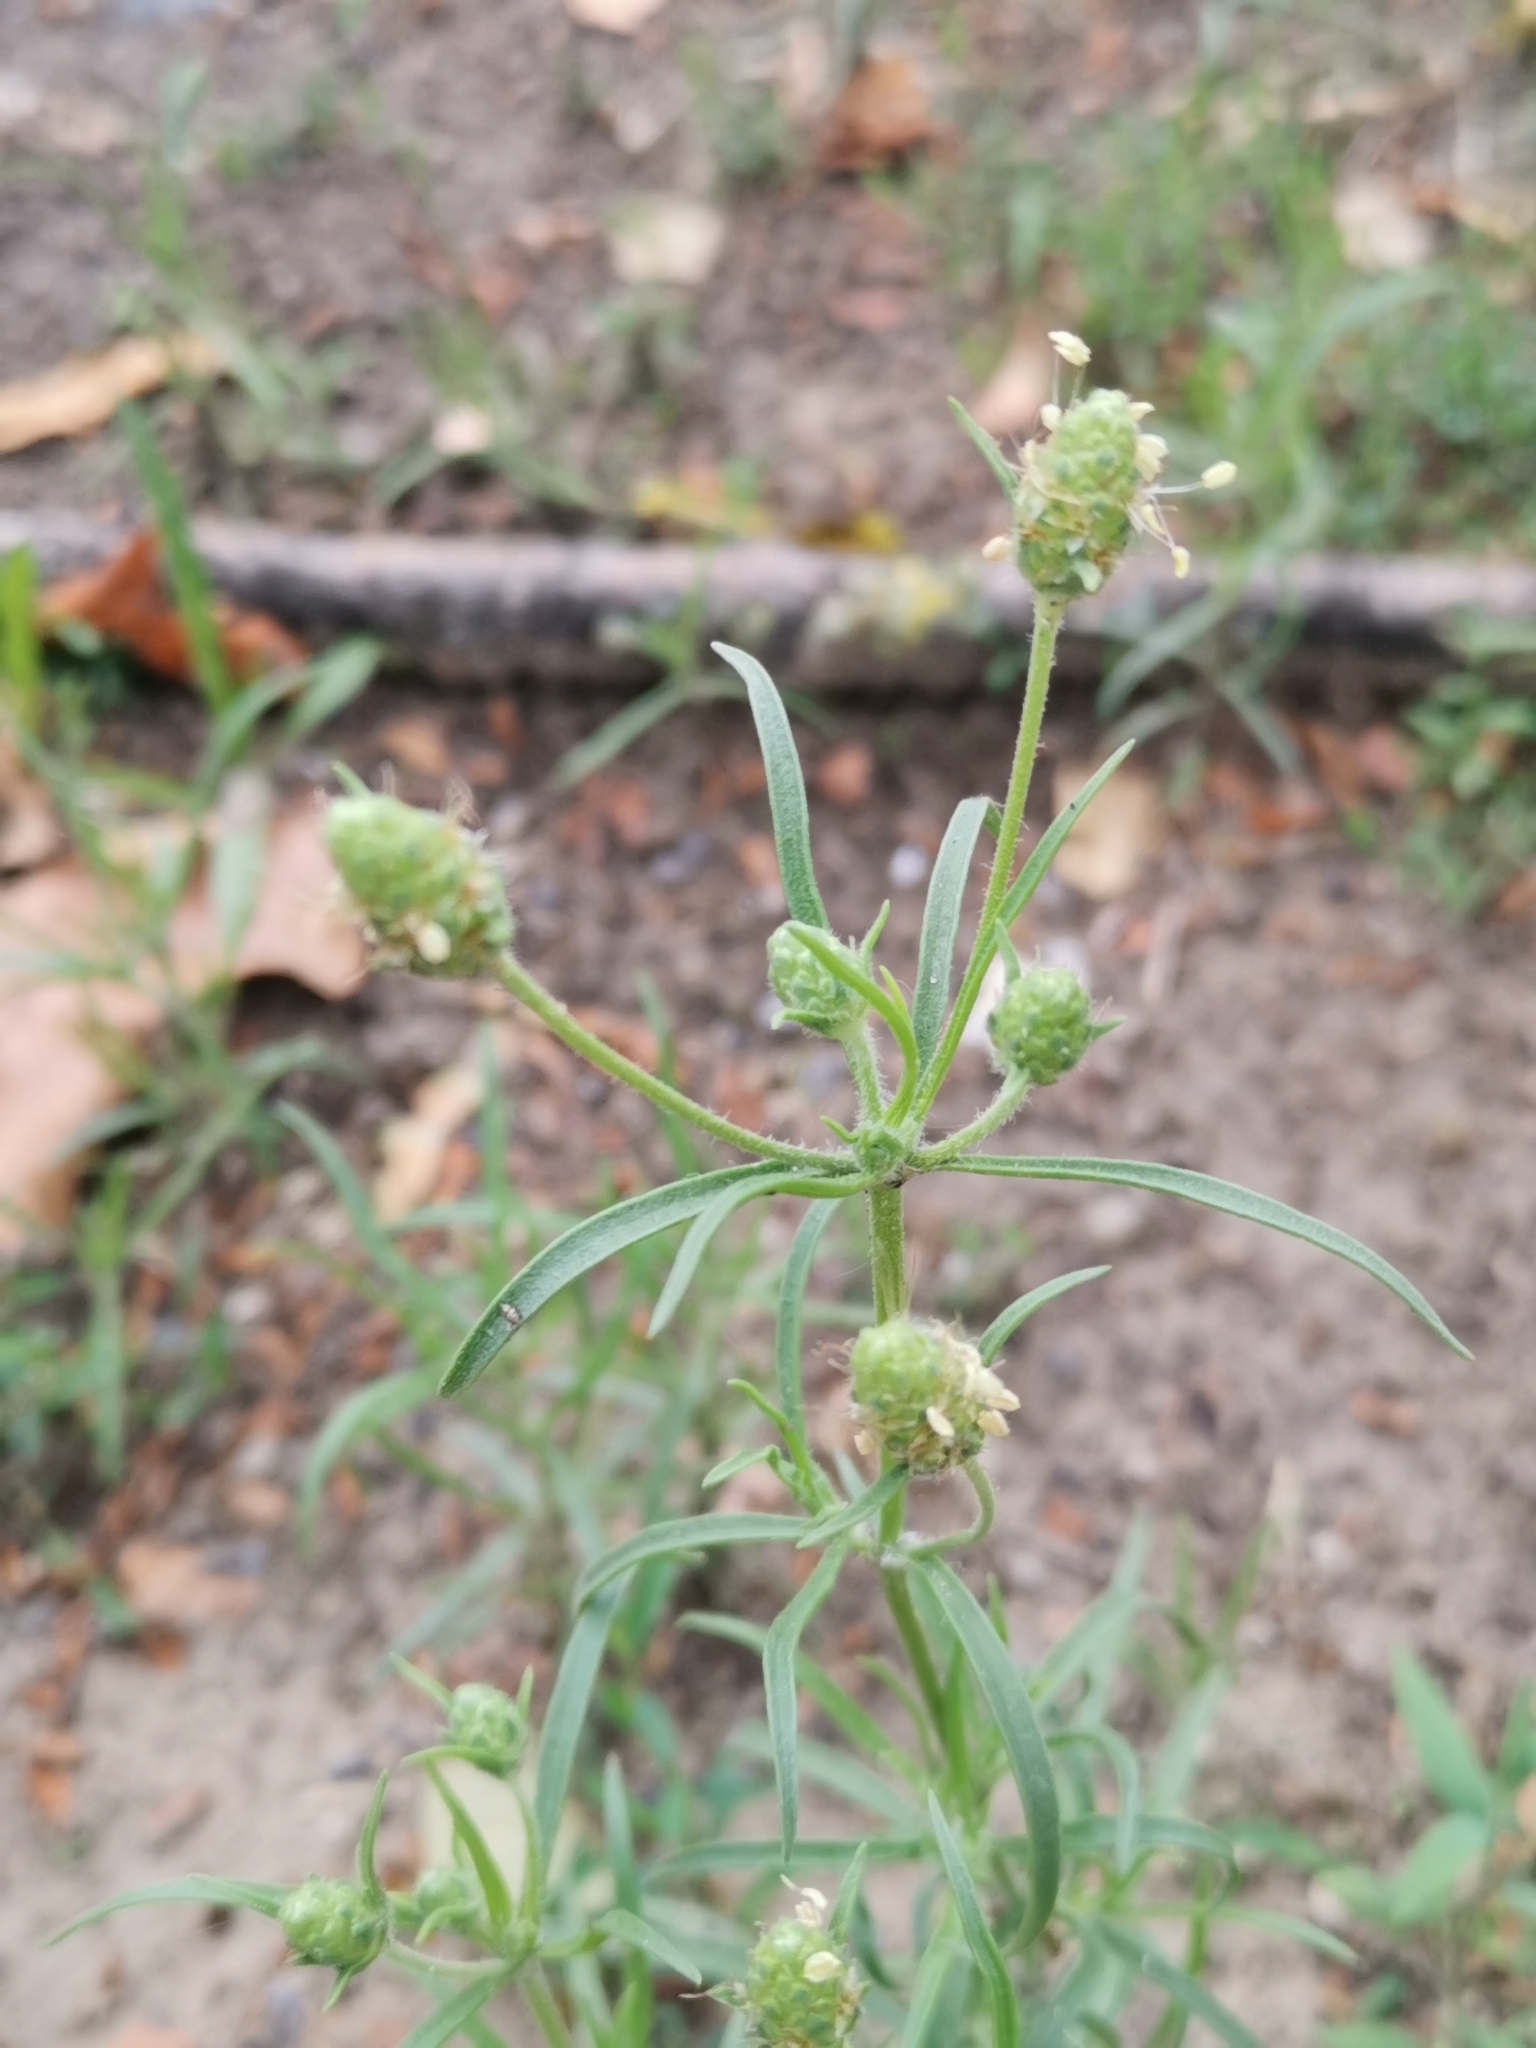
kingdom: Plantae
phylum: Tracheophyta
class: Magnoliopsida
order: Lamiales
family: Plantaginaceae
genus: Plantago
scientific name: Plantago arenaria
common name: Branched plantain
